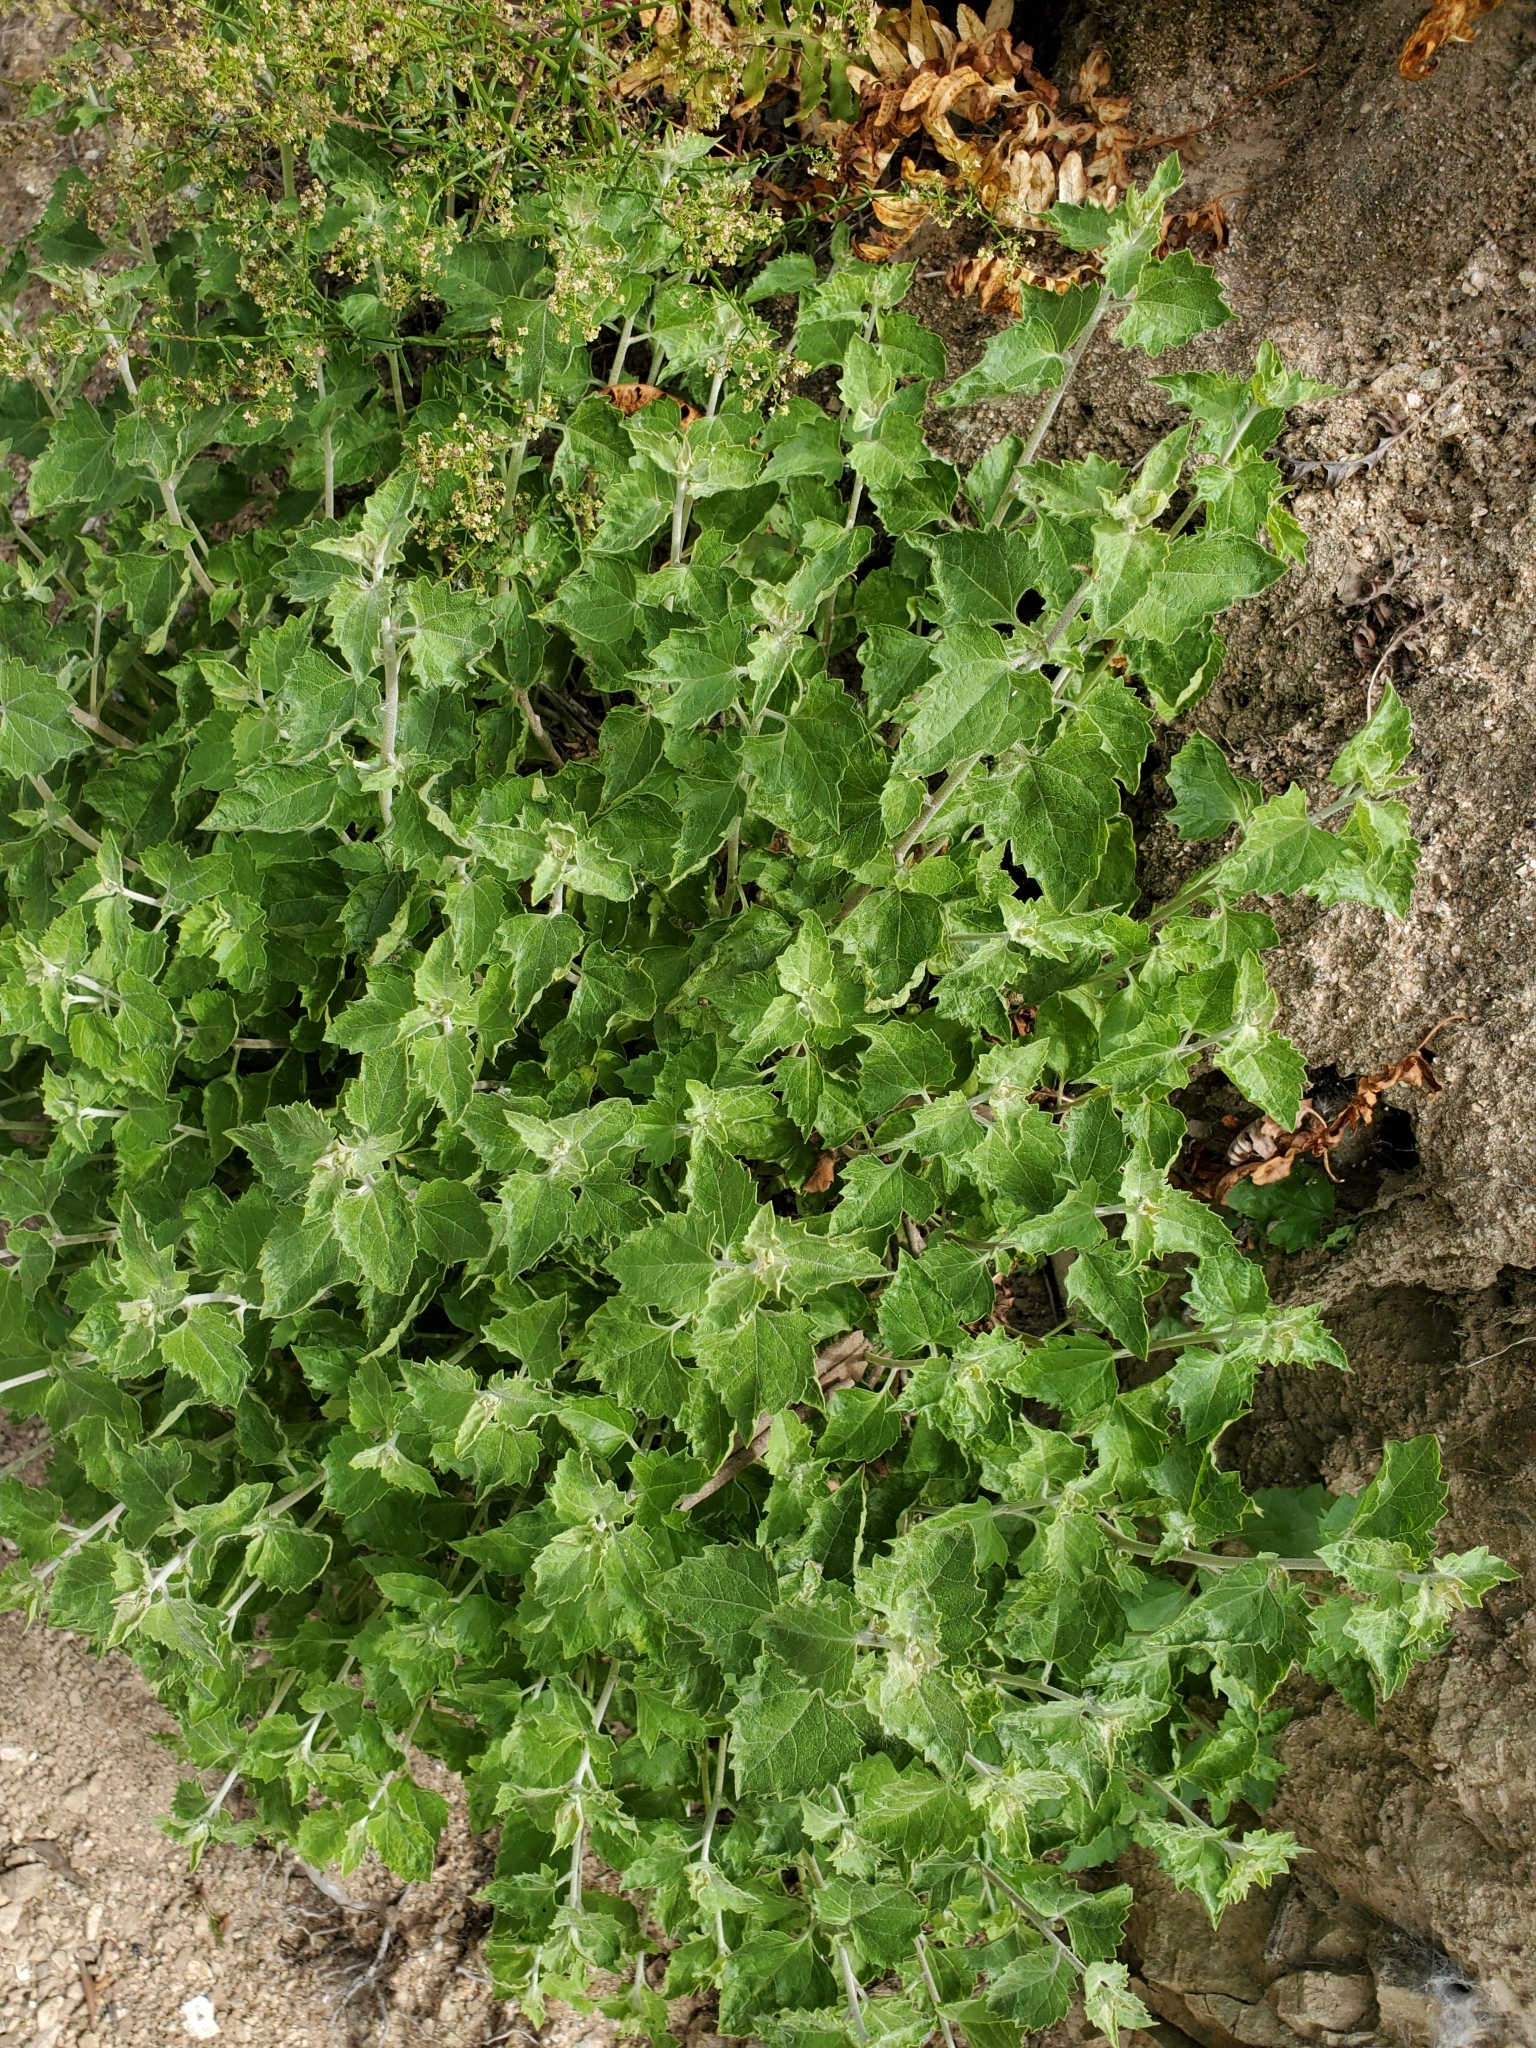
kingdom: Plantae
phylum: Tracheophyta
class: Magnoliopsida
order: Asterales
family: Asteraceae
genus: Brickellia
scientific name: Brickellia californica
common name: California brickellbush
